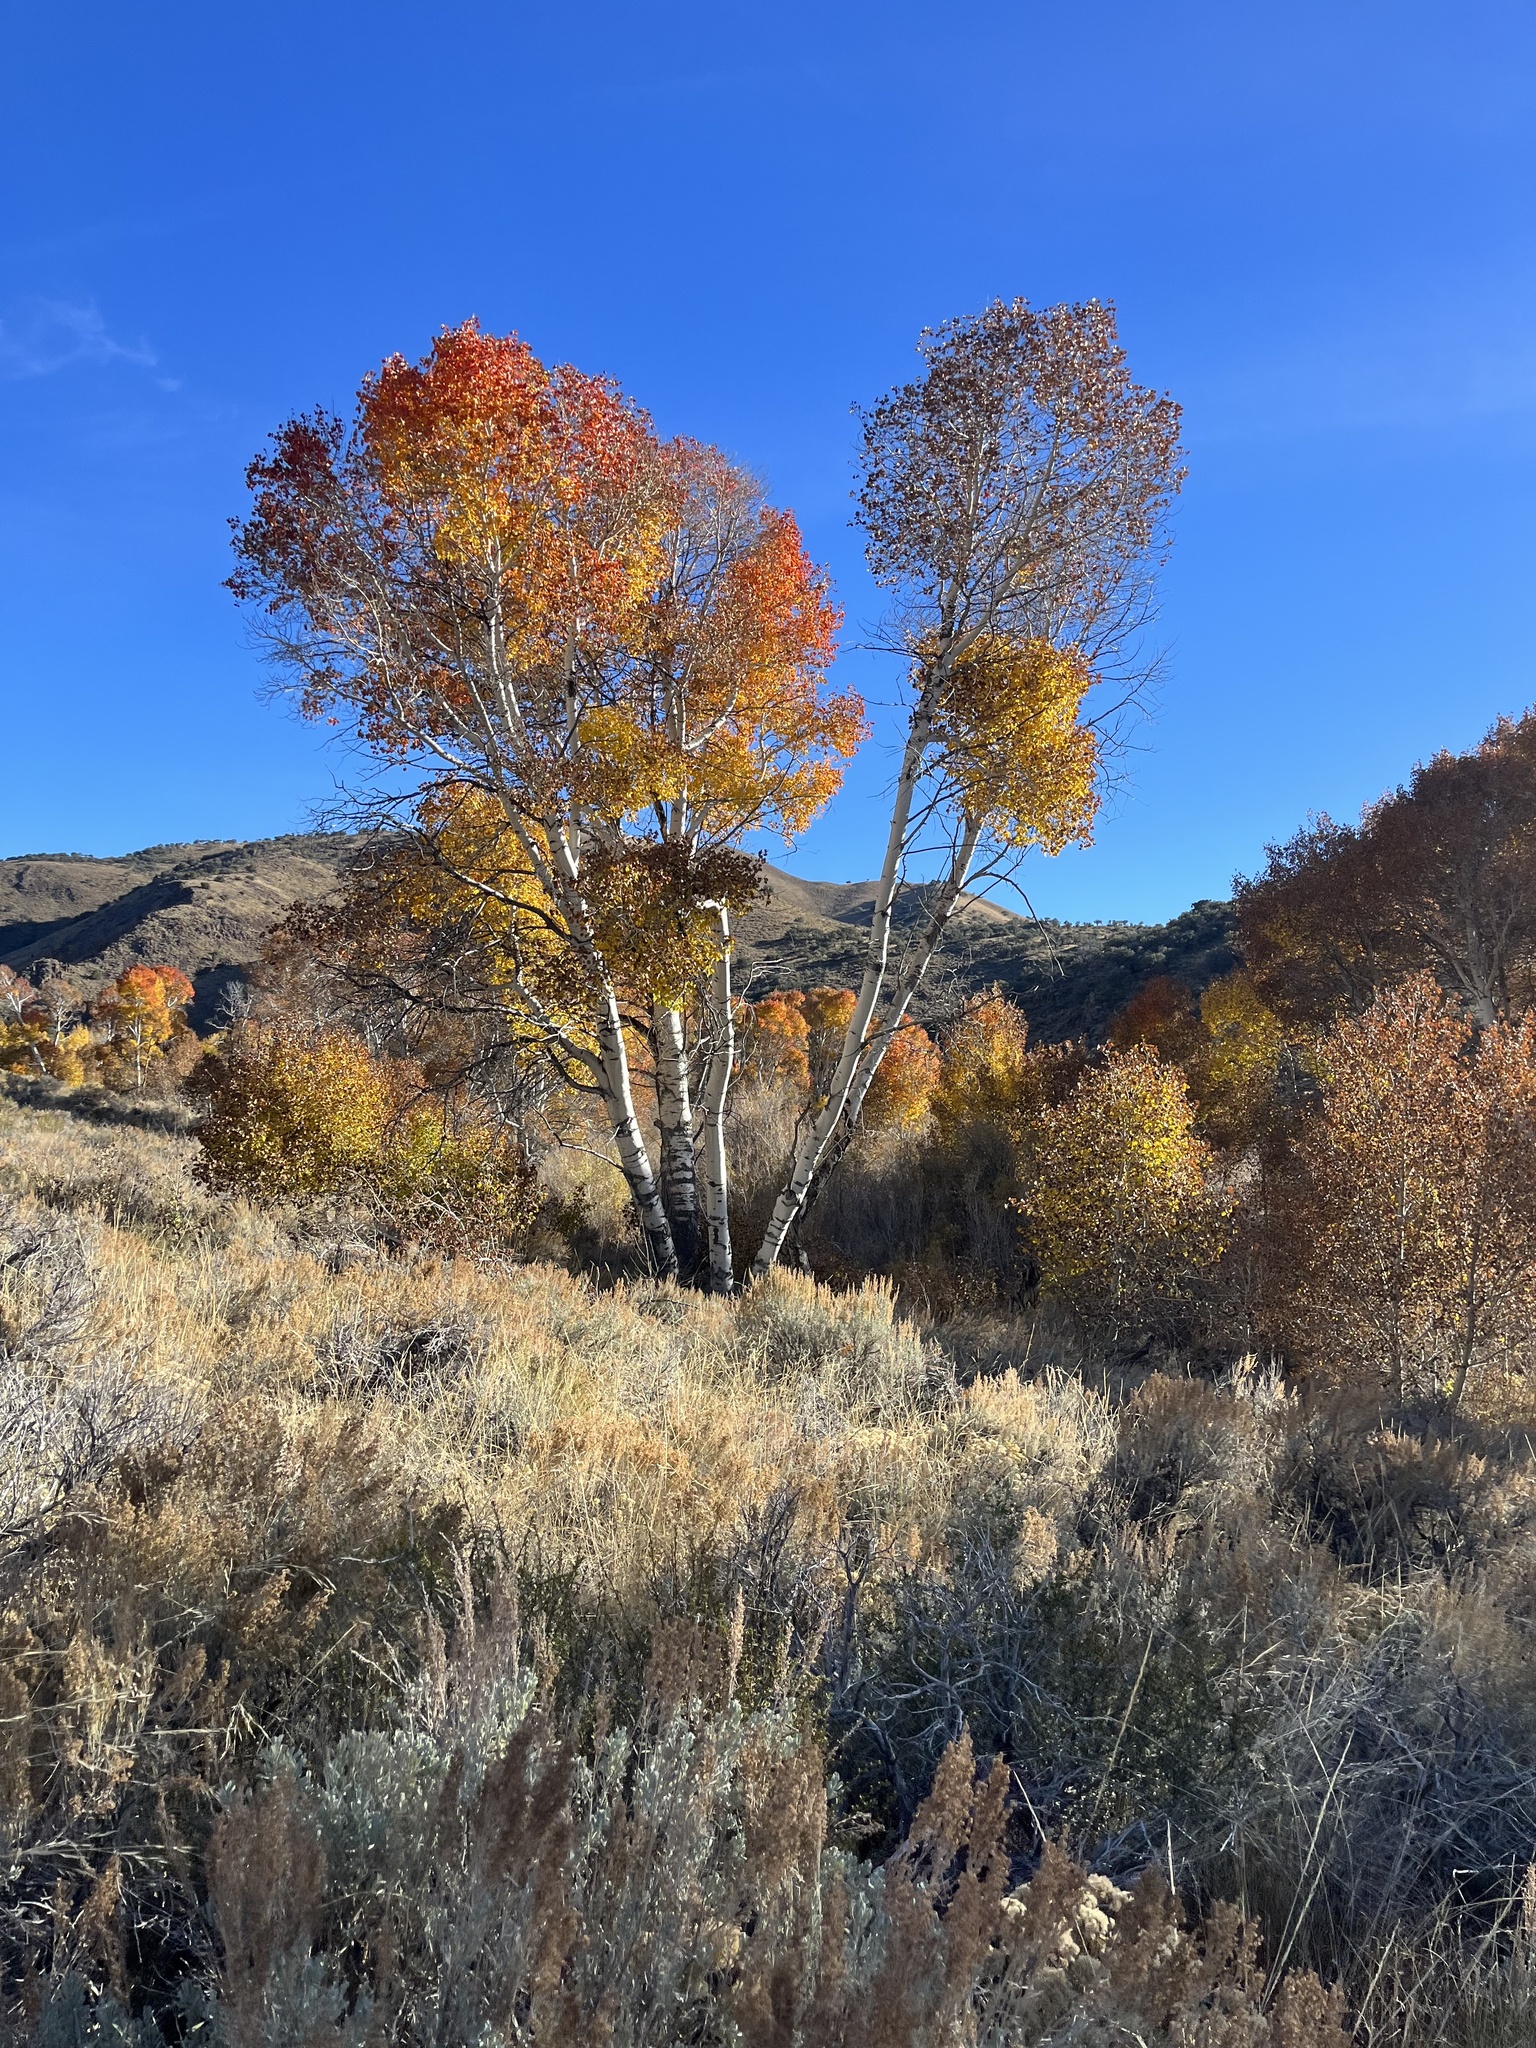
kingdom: Plantae
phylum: Tracheophyta
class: Magnoliopsida
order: Malpighiales
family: Salicaceae
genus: Populus
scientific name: Populus tremuloides
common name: Quaking aspen
